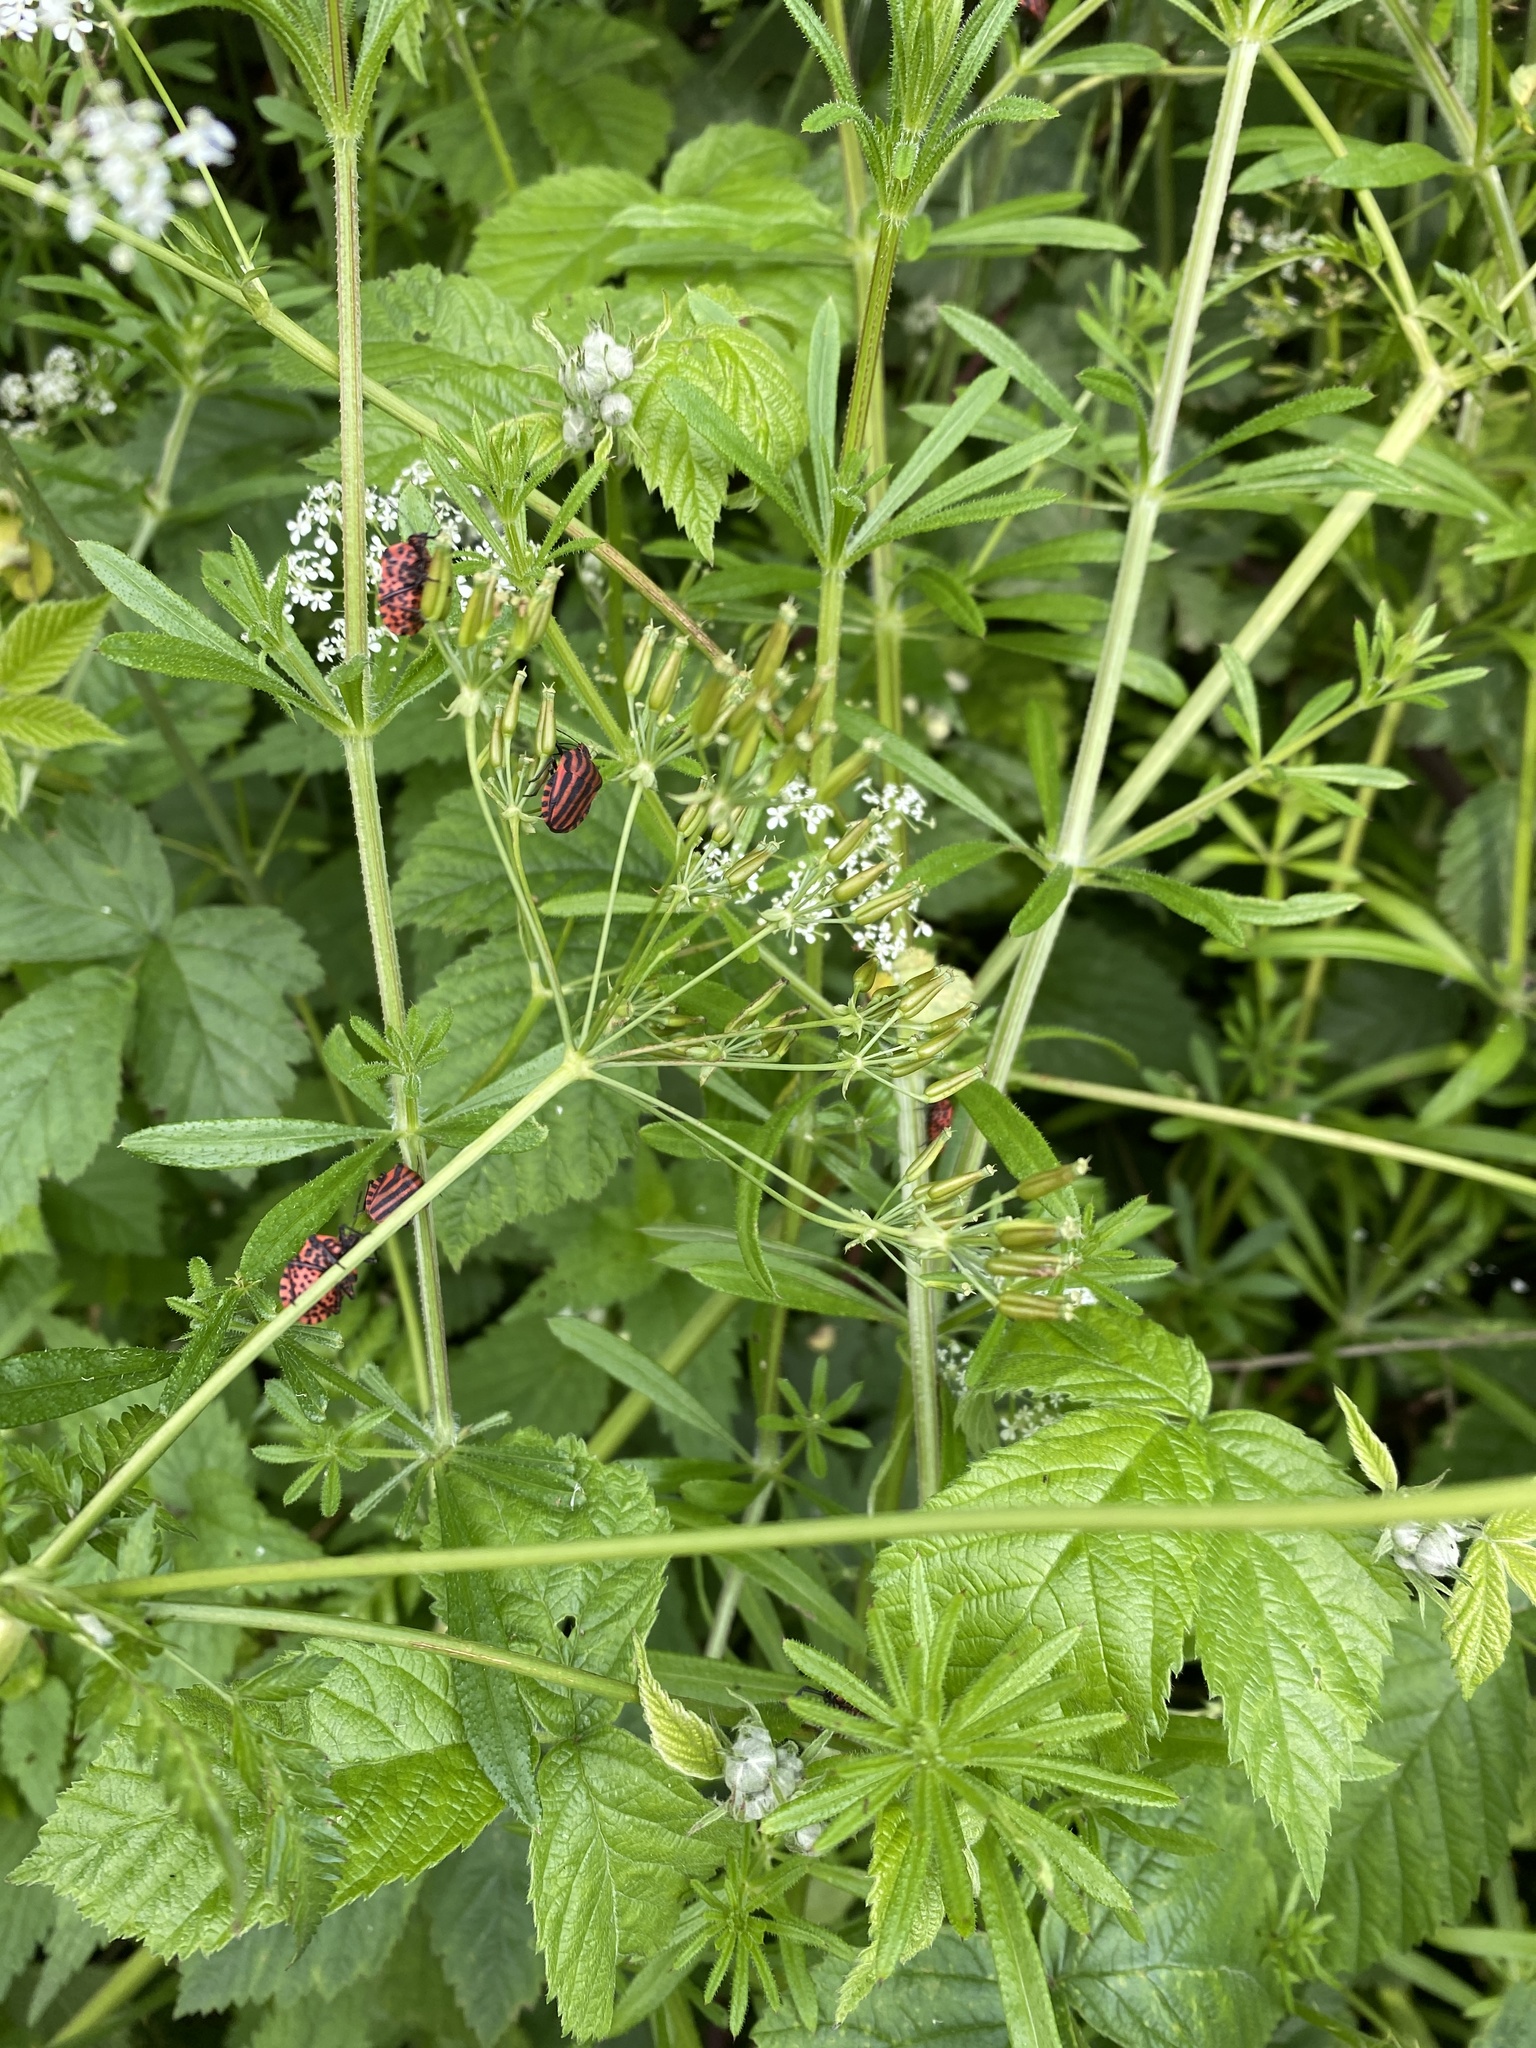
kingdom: Animalia
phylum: Arthropoda
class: Insecta
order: Hemiptera
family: Pentatomidae
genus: Graphosoma
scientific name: Graphosoma italicum
